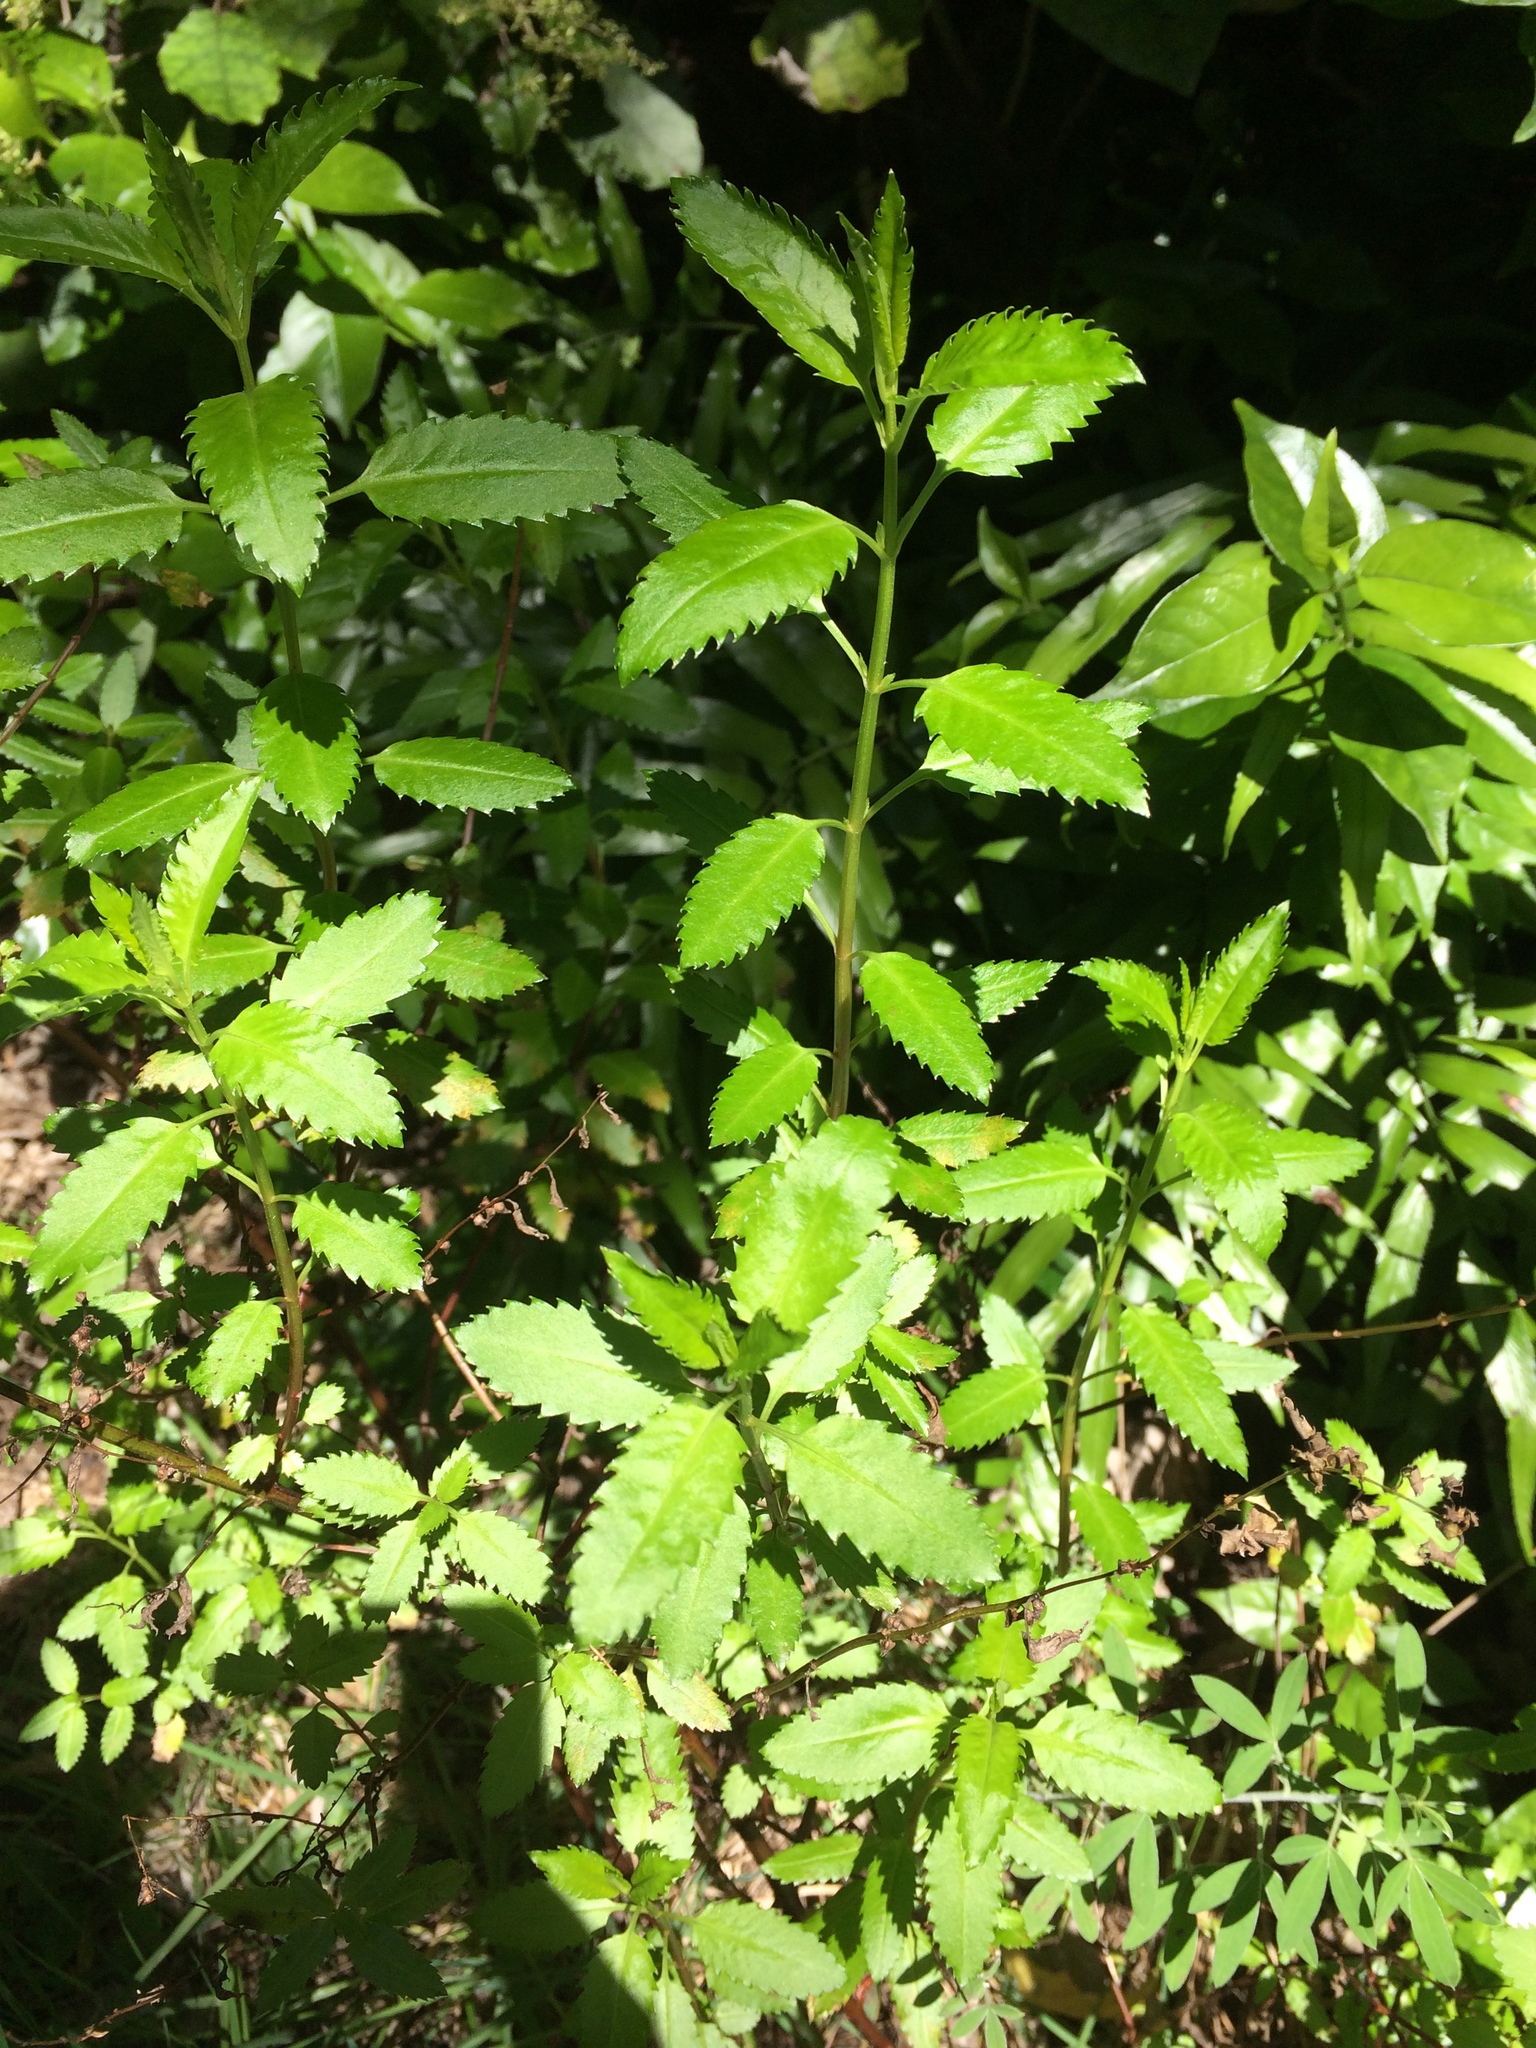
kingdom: Plantae
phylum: Tracheophyta
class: Magnoliopsida
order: Saxifragales
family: Haloragaceae
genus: Haloragis
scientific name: Haloragis erecta
